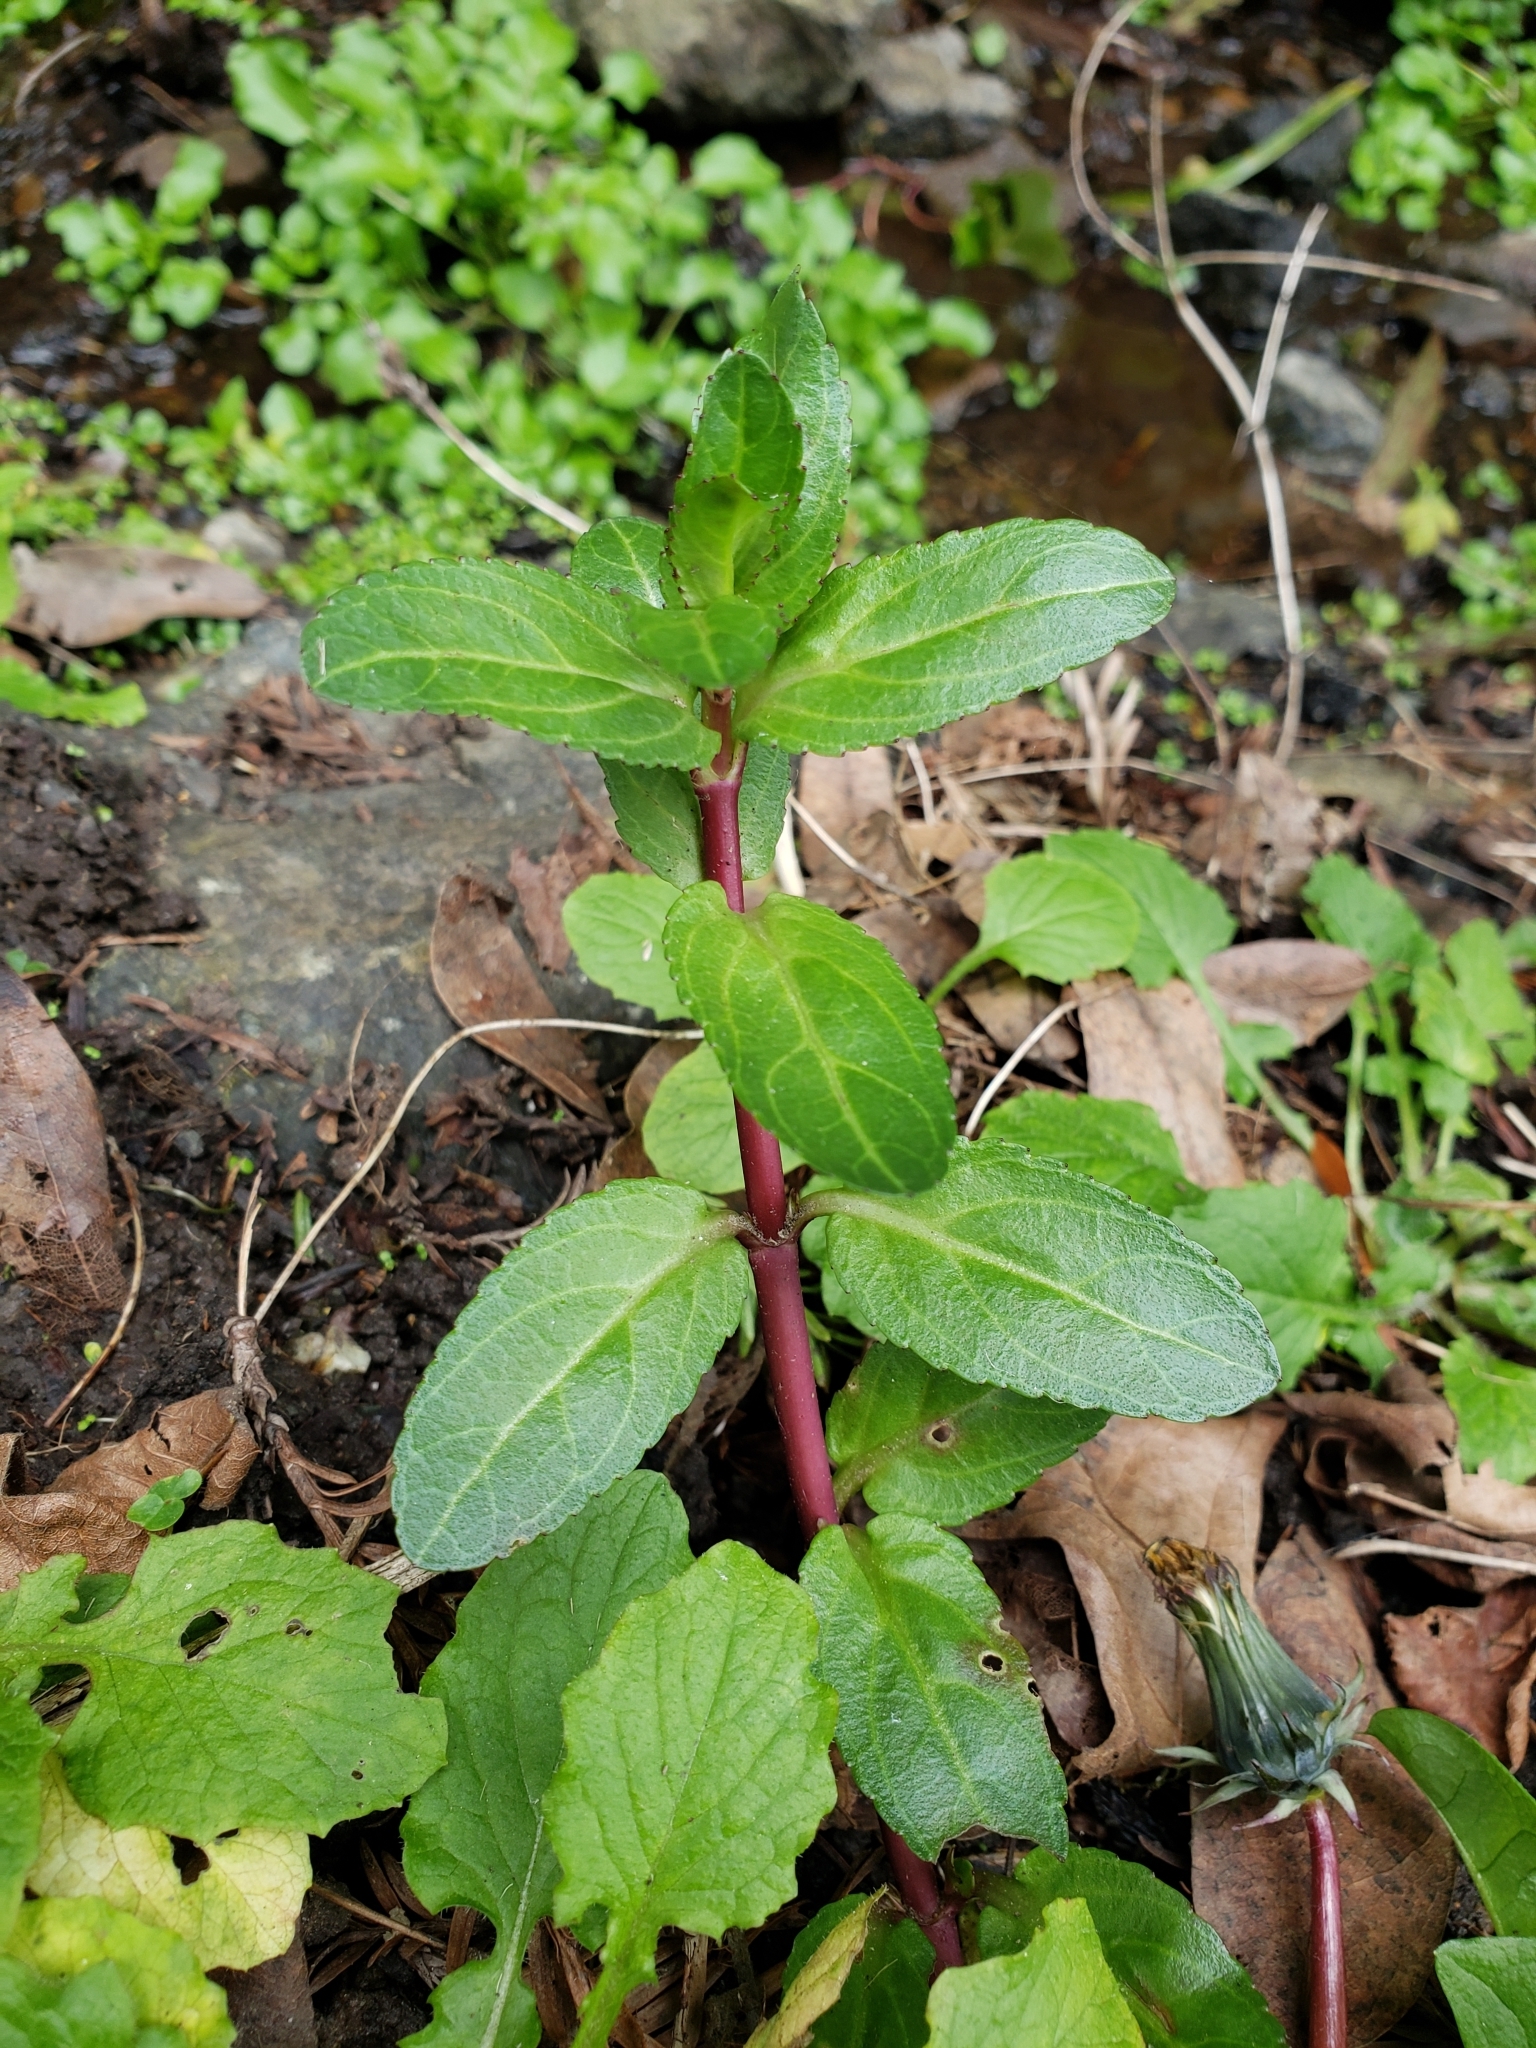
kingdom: Plantae
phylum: Tracheophyta
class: Magnoliopsida
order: Lamiales
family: Plantaginaceae
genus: Veronica
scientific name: Veronica americana
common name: American brooklime
